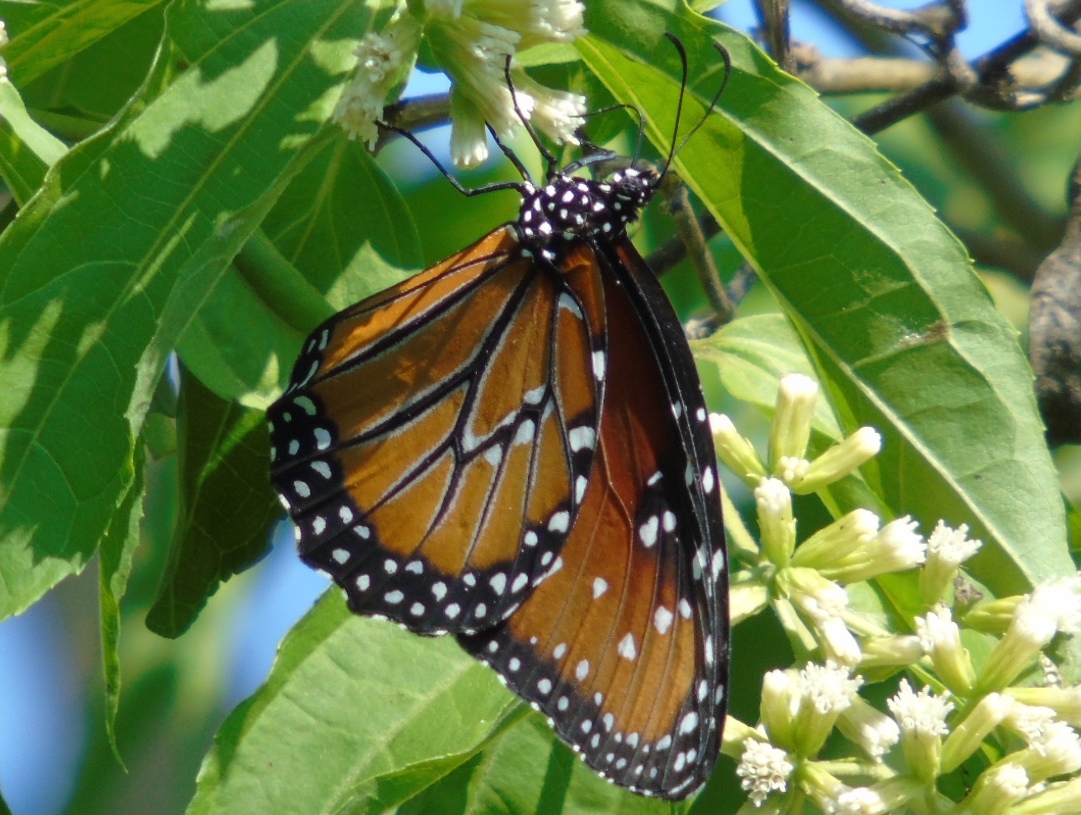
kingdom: Animalia
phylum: Arthropoda
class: Insecta
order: Lepidoptera
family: Nymphalidae
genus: Danaus
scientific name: Danaus gilippus
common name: Queen
